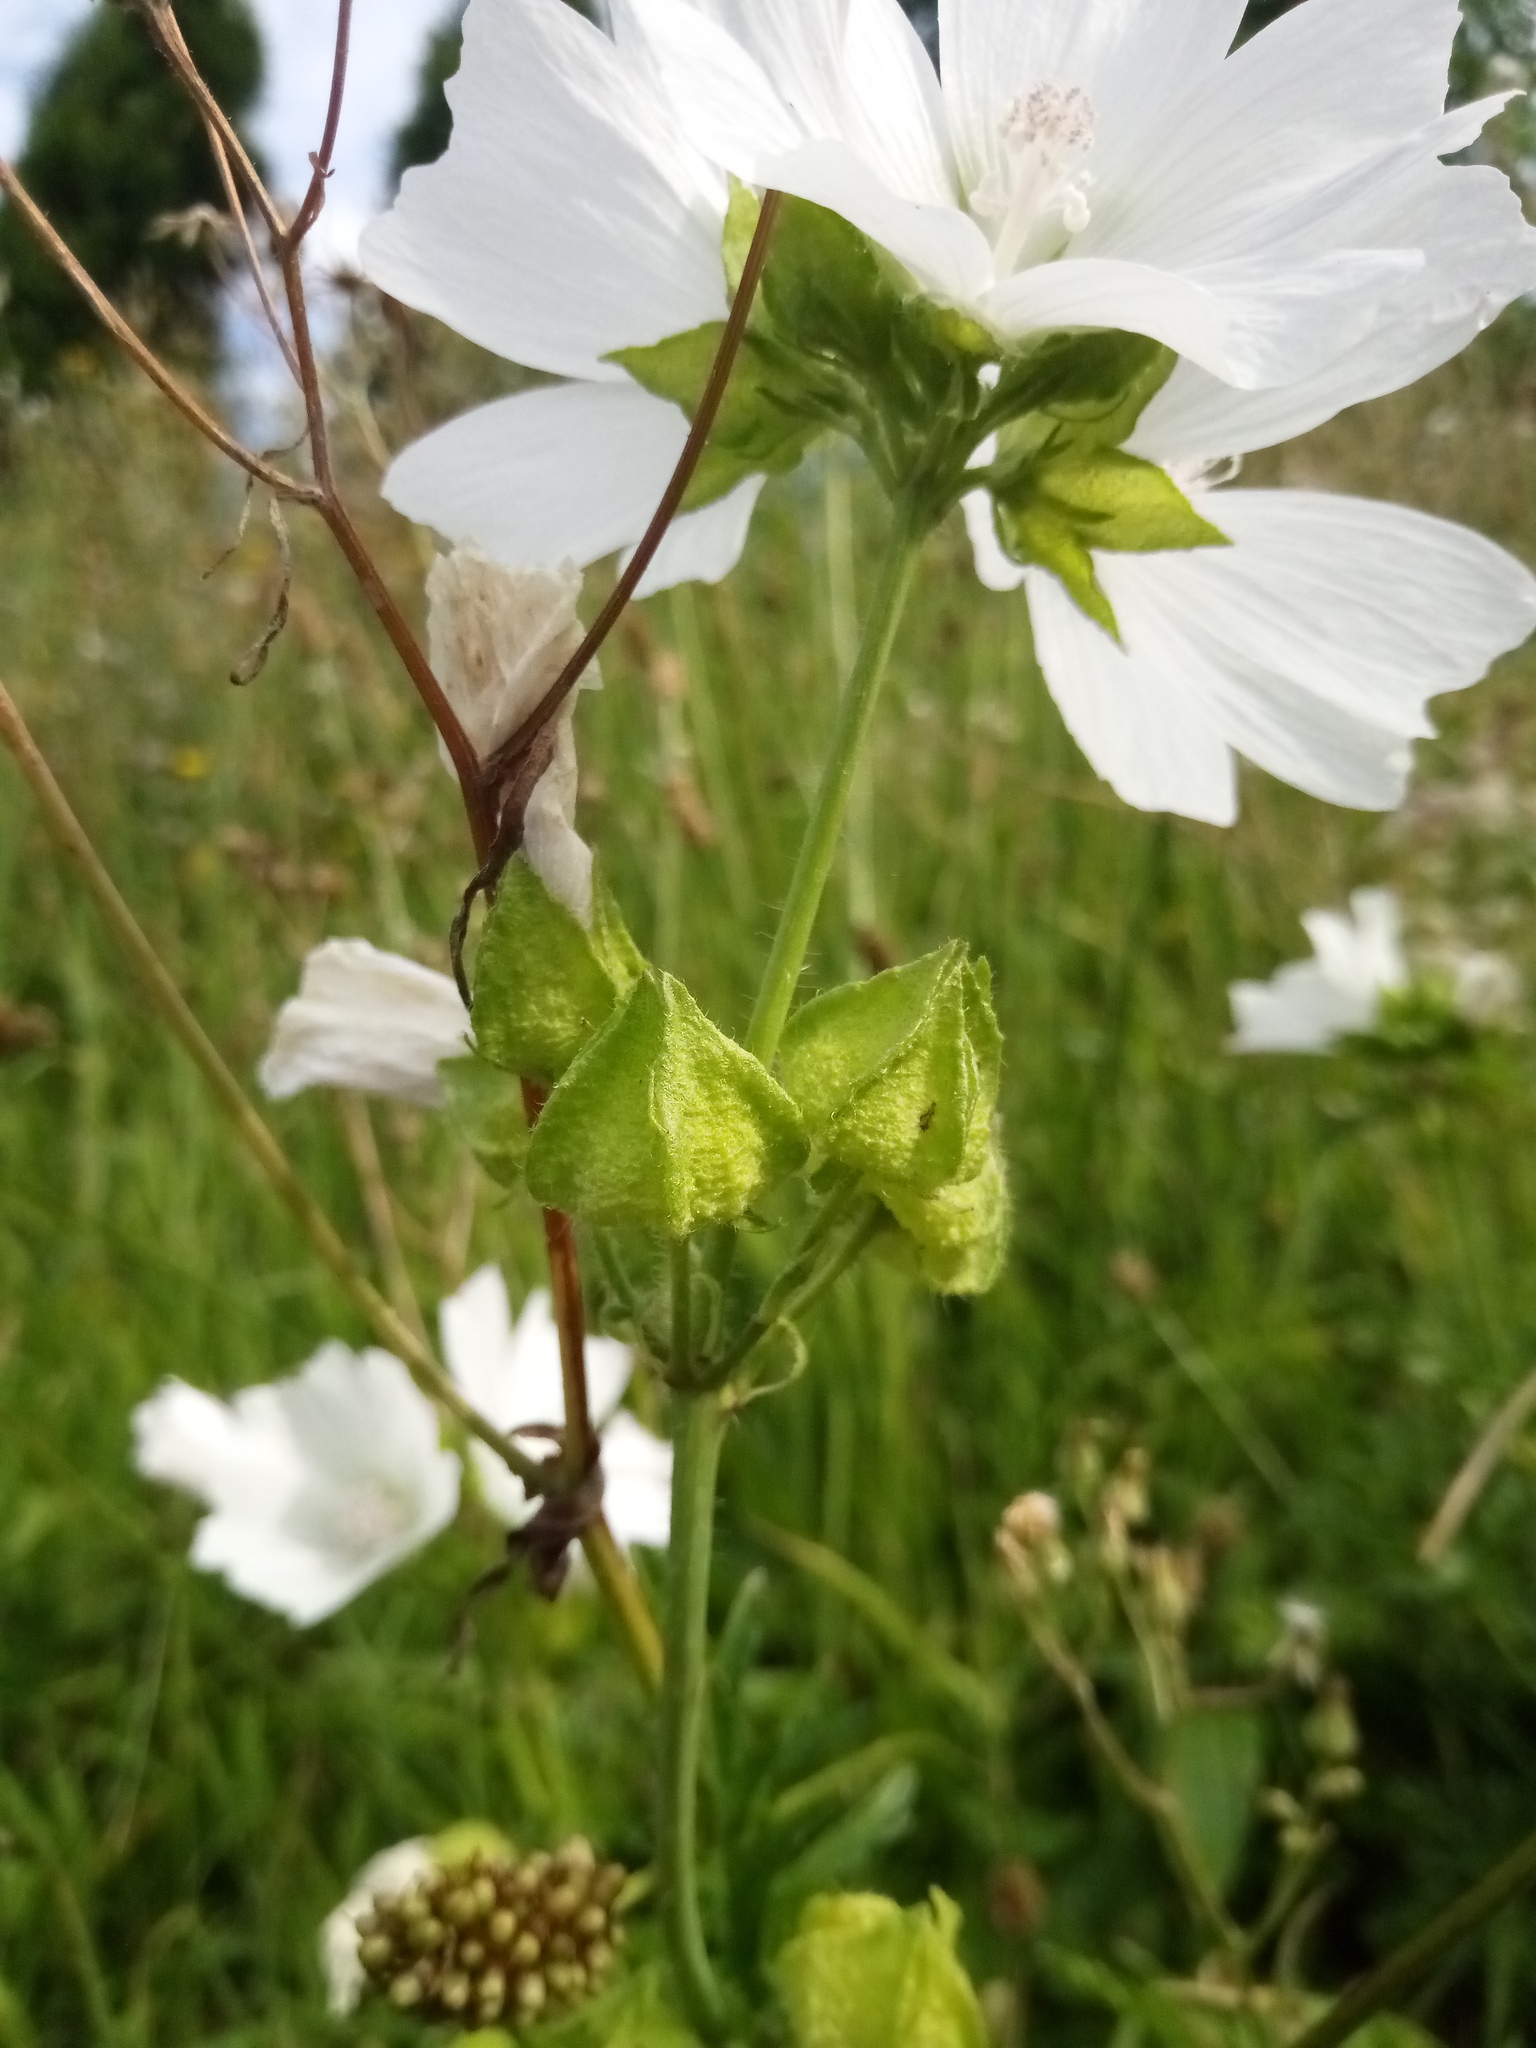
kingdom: Plantae
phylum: Tracheophyta
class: Magnoliopsida
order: Malvales
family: Malvaceae
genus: Malva
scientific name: Malva moschata
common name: Musk mallow
